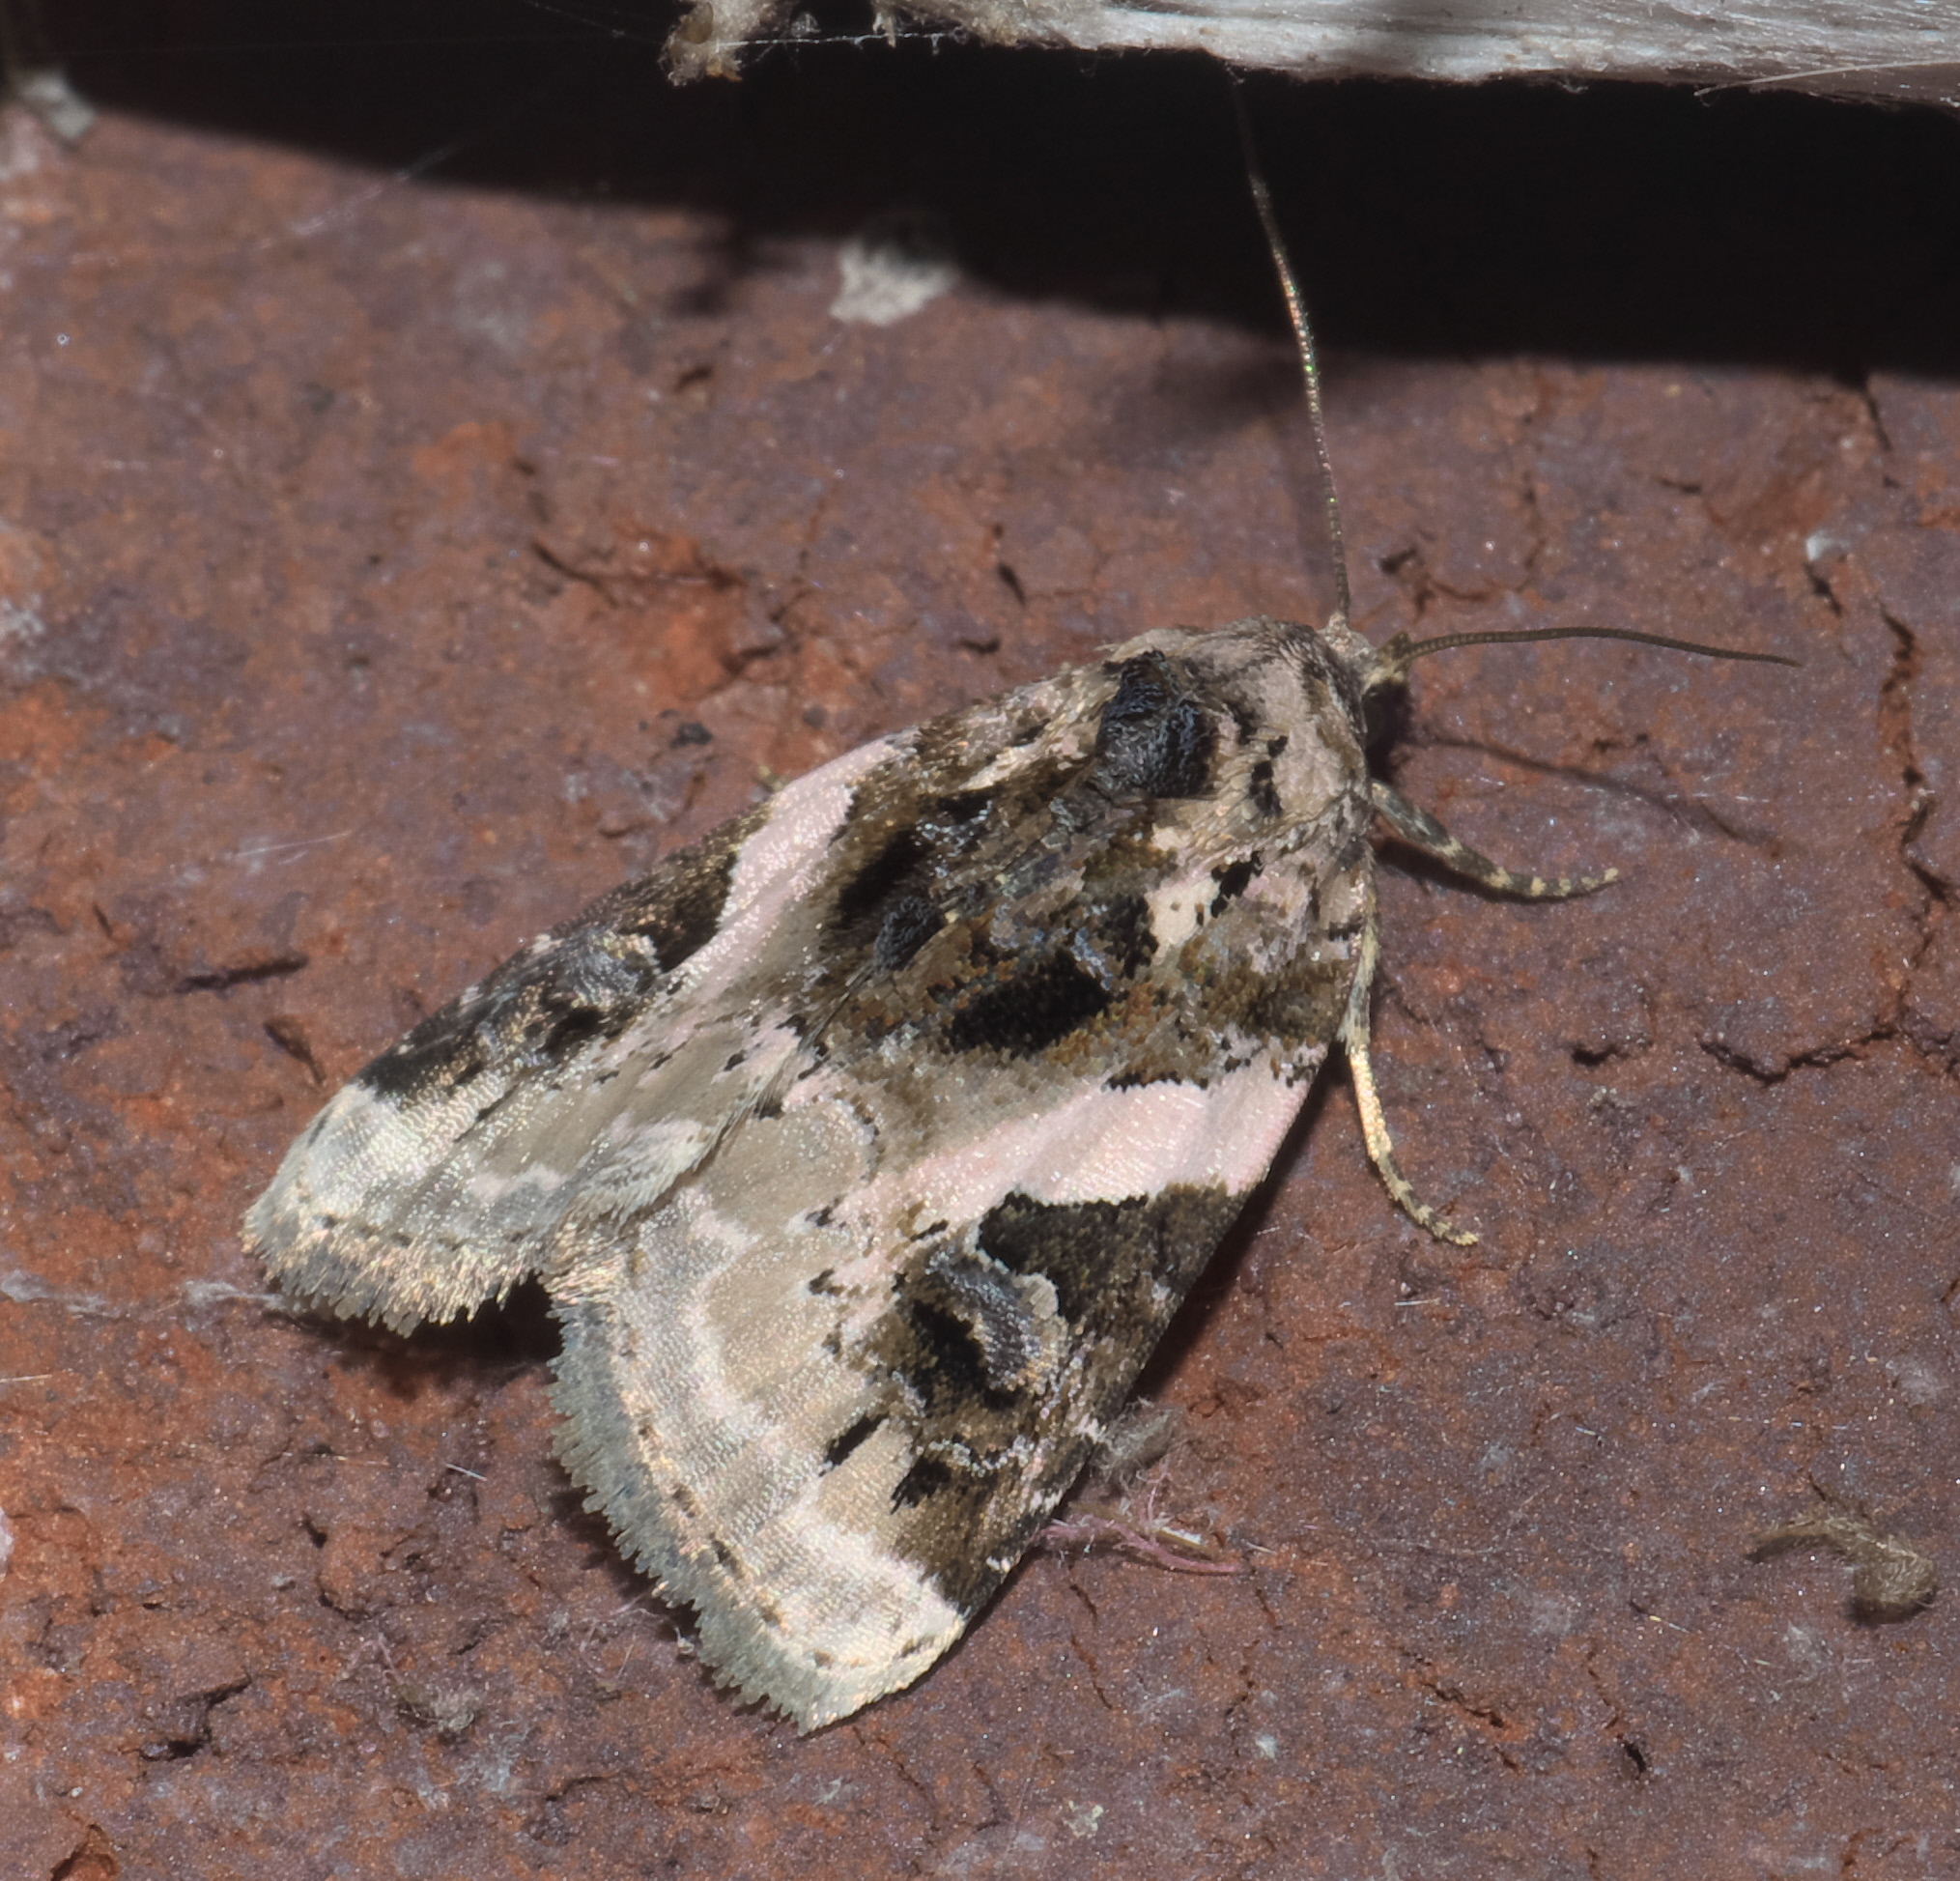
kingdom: Animalia
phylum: Arthropoda
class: Insecta
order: Lepidoptera
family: Noctuidae
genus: Pseudeustrotia
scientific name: Pseudeustrotia carneola
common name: Pink-barred lithacodia moth
